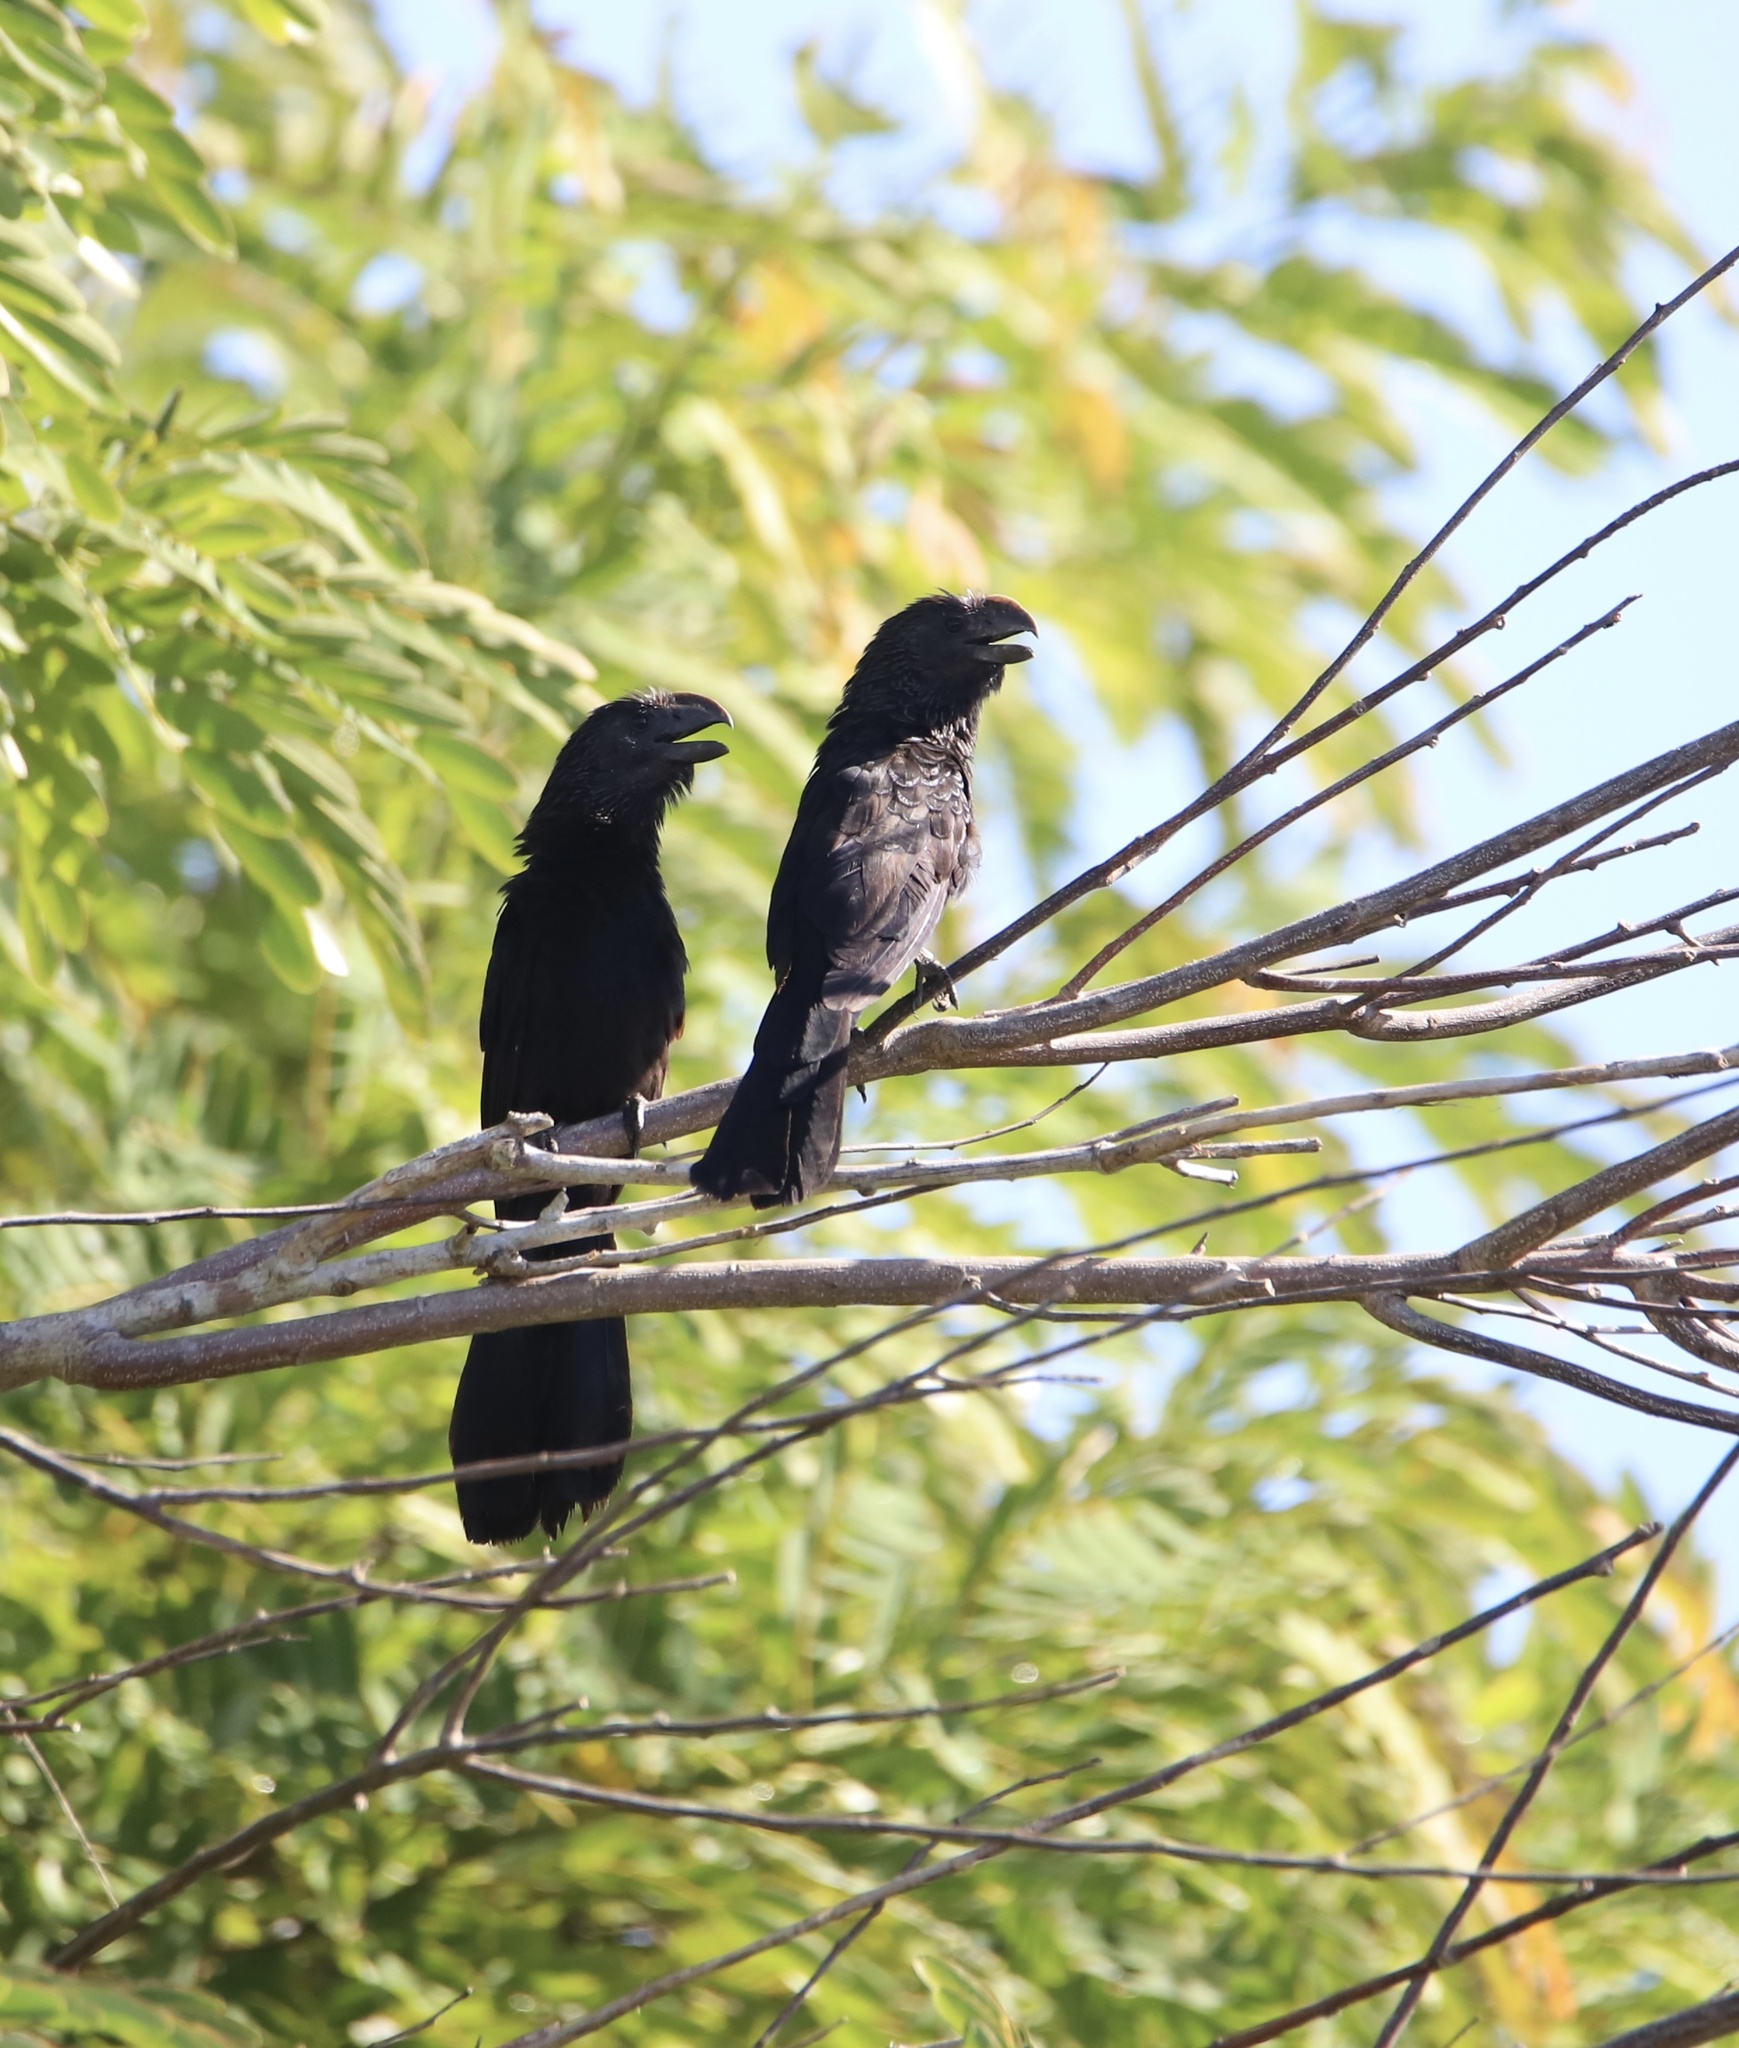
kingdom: Animalia
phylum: Chordata
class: Aves
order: Cuculiformes
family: Cuculidae
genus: Crotophaga
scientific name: Crotophaga ani
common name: Smooth-billed ani
